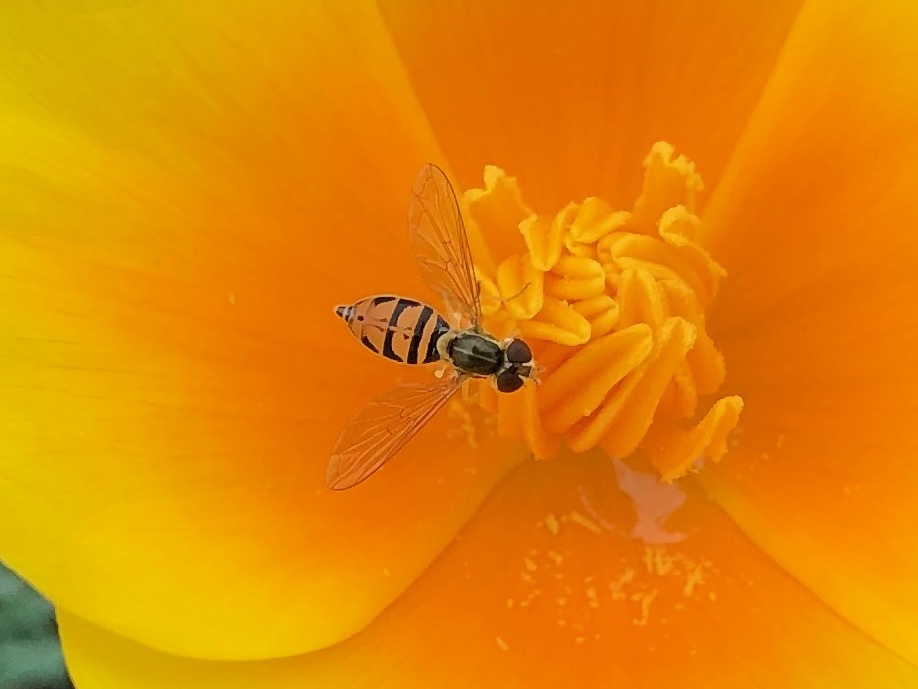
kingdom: Animalia
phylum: Arthropoda
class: Insecta
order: Diptera
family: Syrphidae
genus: Toxomerus
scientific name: Toxomerus marginatus
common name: Syrphid fly
